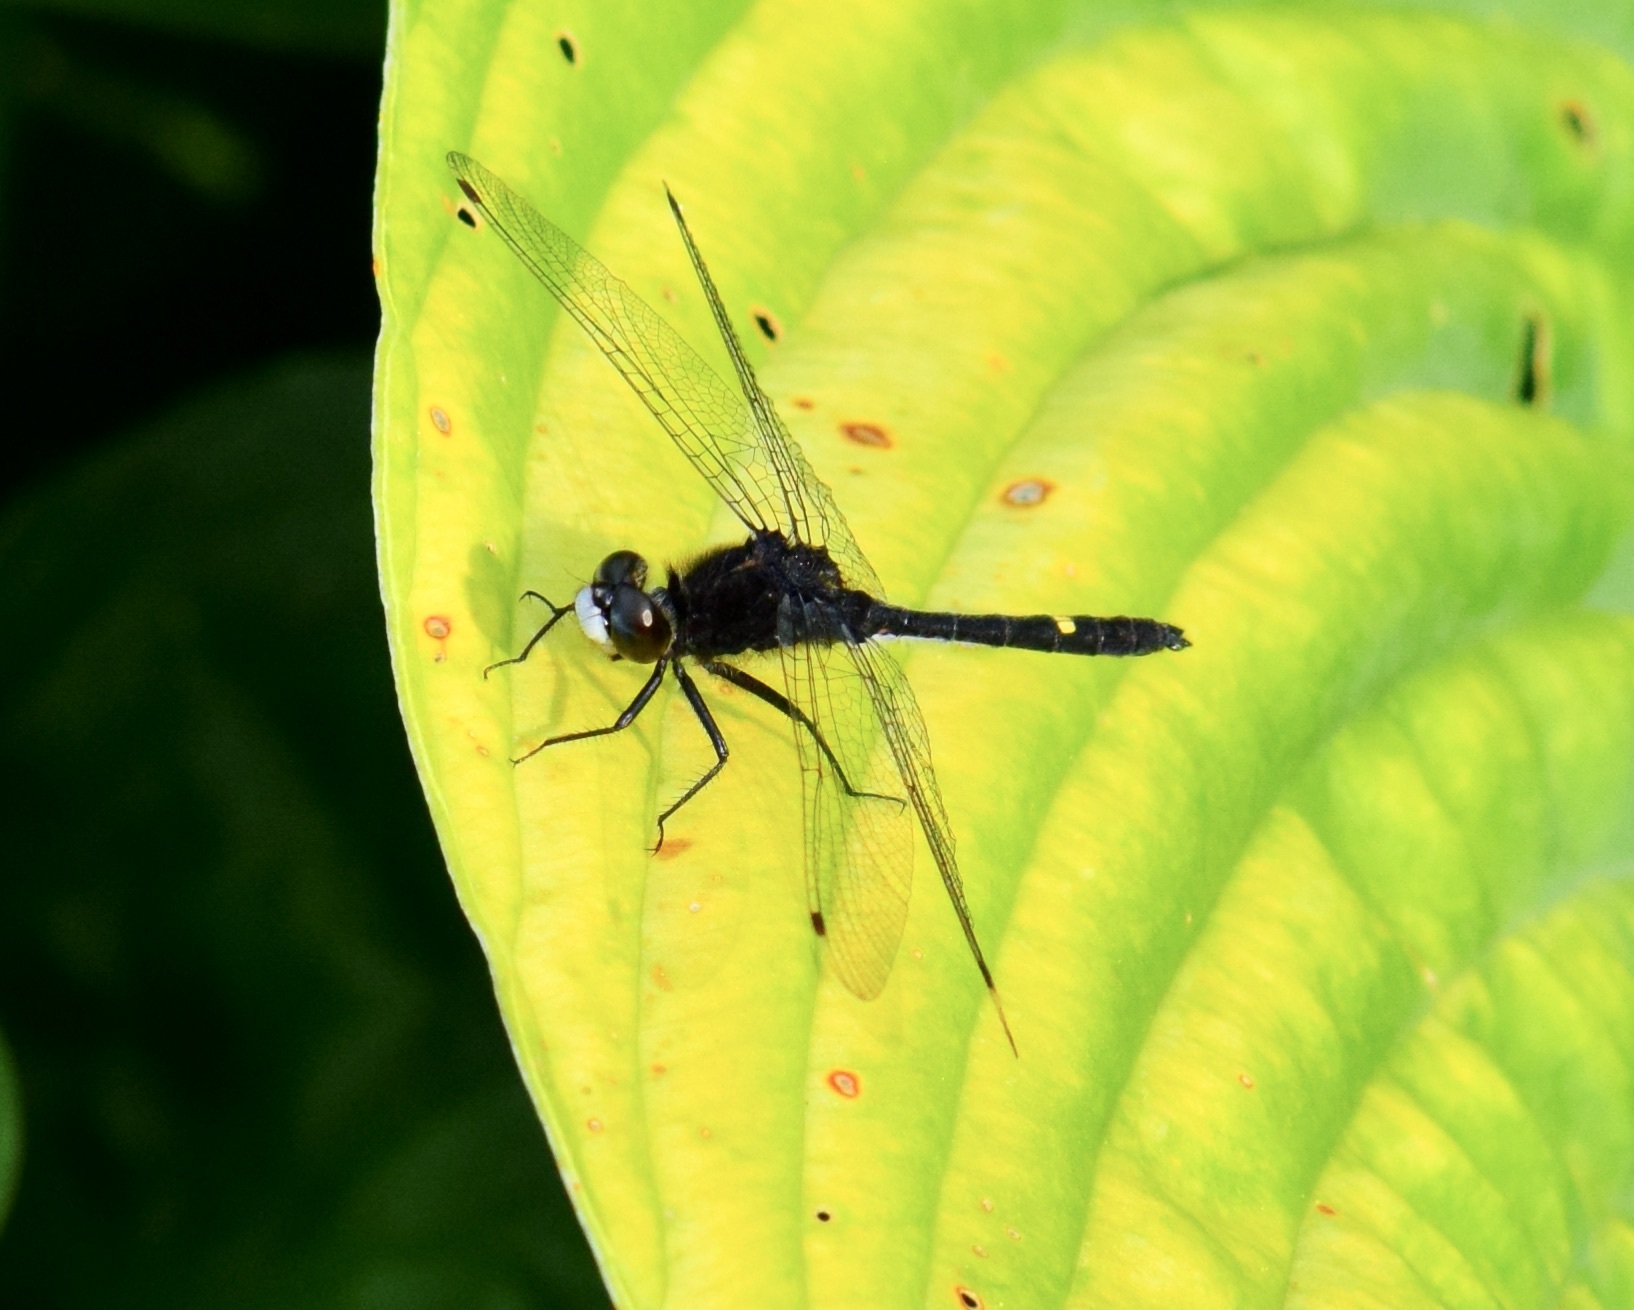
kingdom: Animalia
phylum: Arthropoda
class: Insecta
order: Odonata
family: Libellulidae
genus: Leucorrhinia
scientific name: Leucorrhinia intacta
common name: Dot-tailed whiteface
